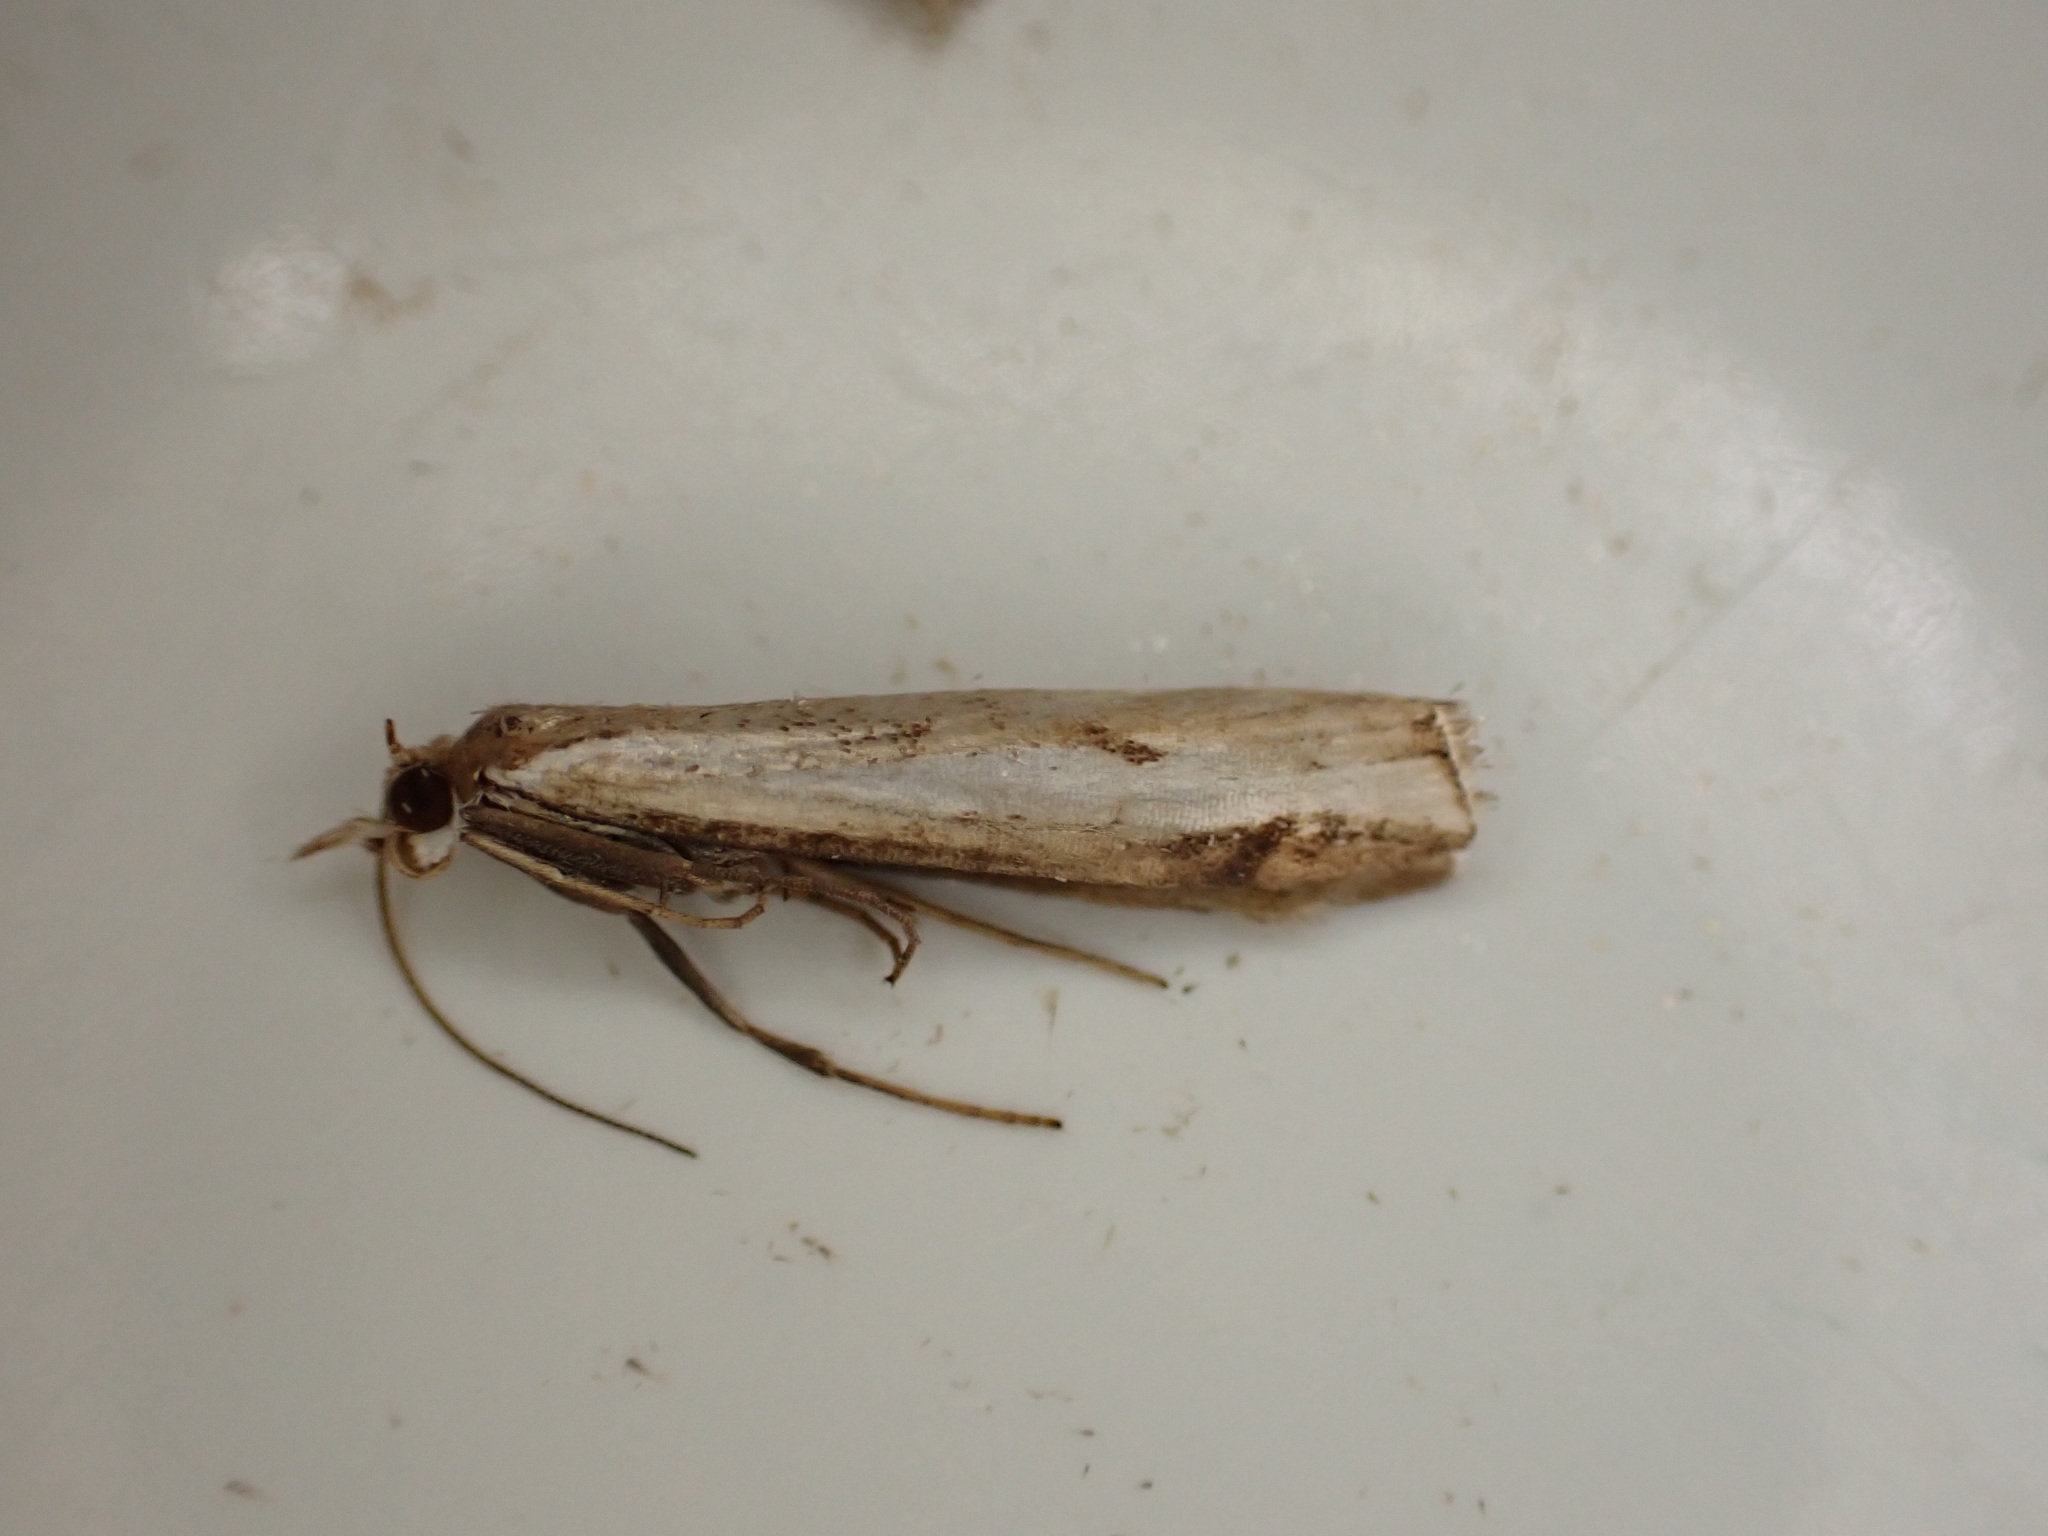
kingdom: Animalia
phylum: Arthropoda
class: Insecta
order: Lepidoptera
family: Crambidae
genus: Orocrambus
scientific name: Orocrambus flexuosellus
